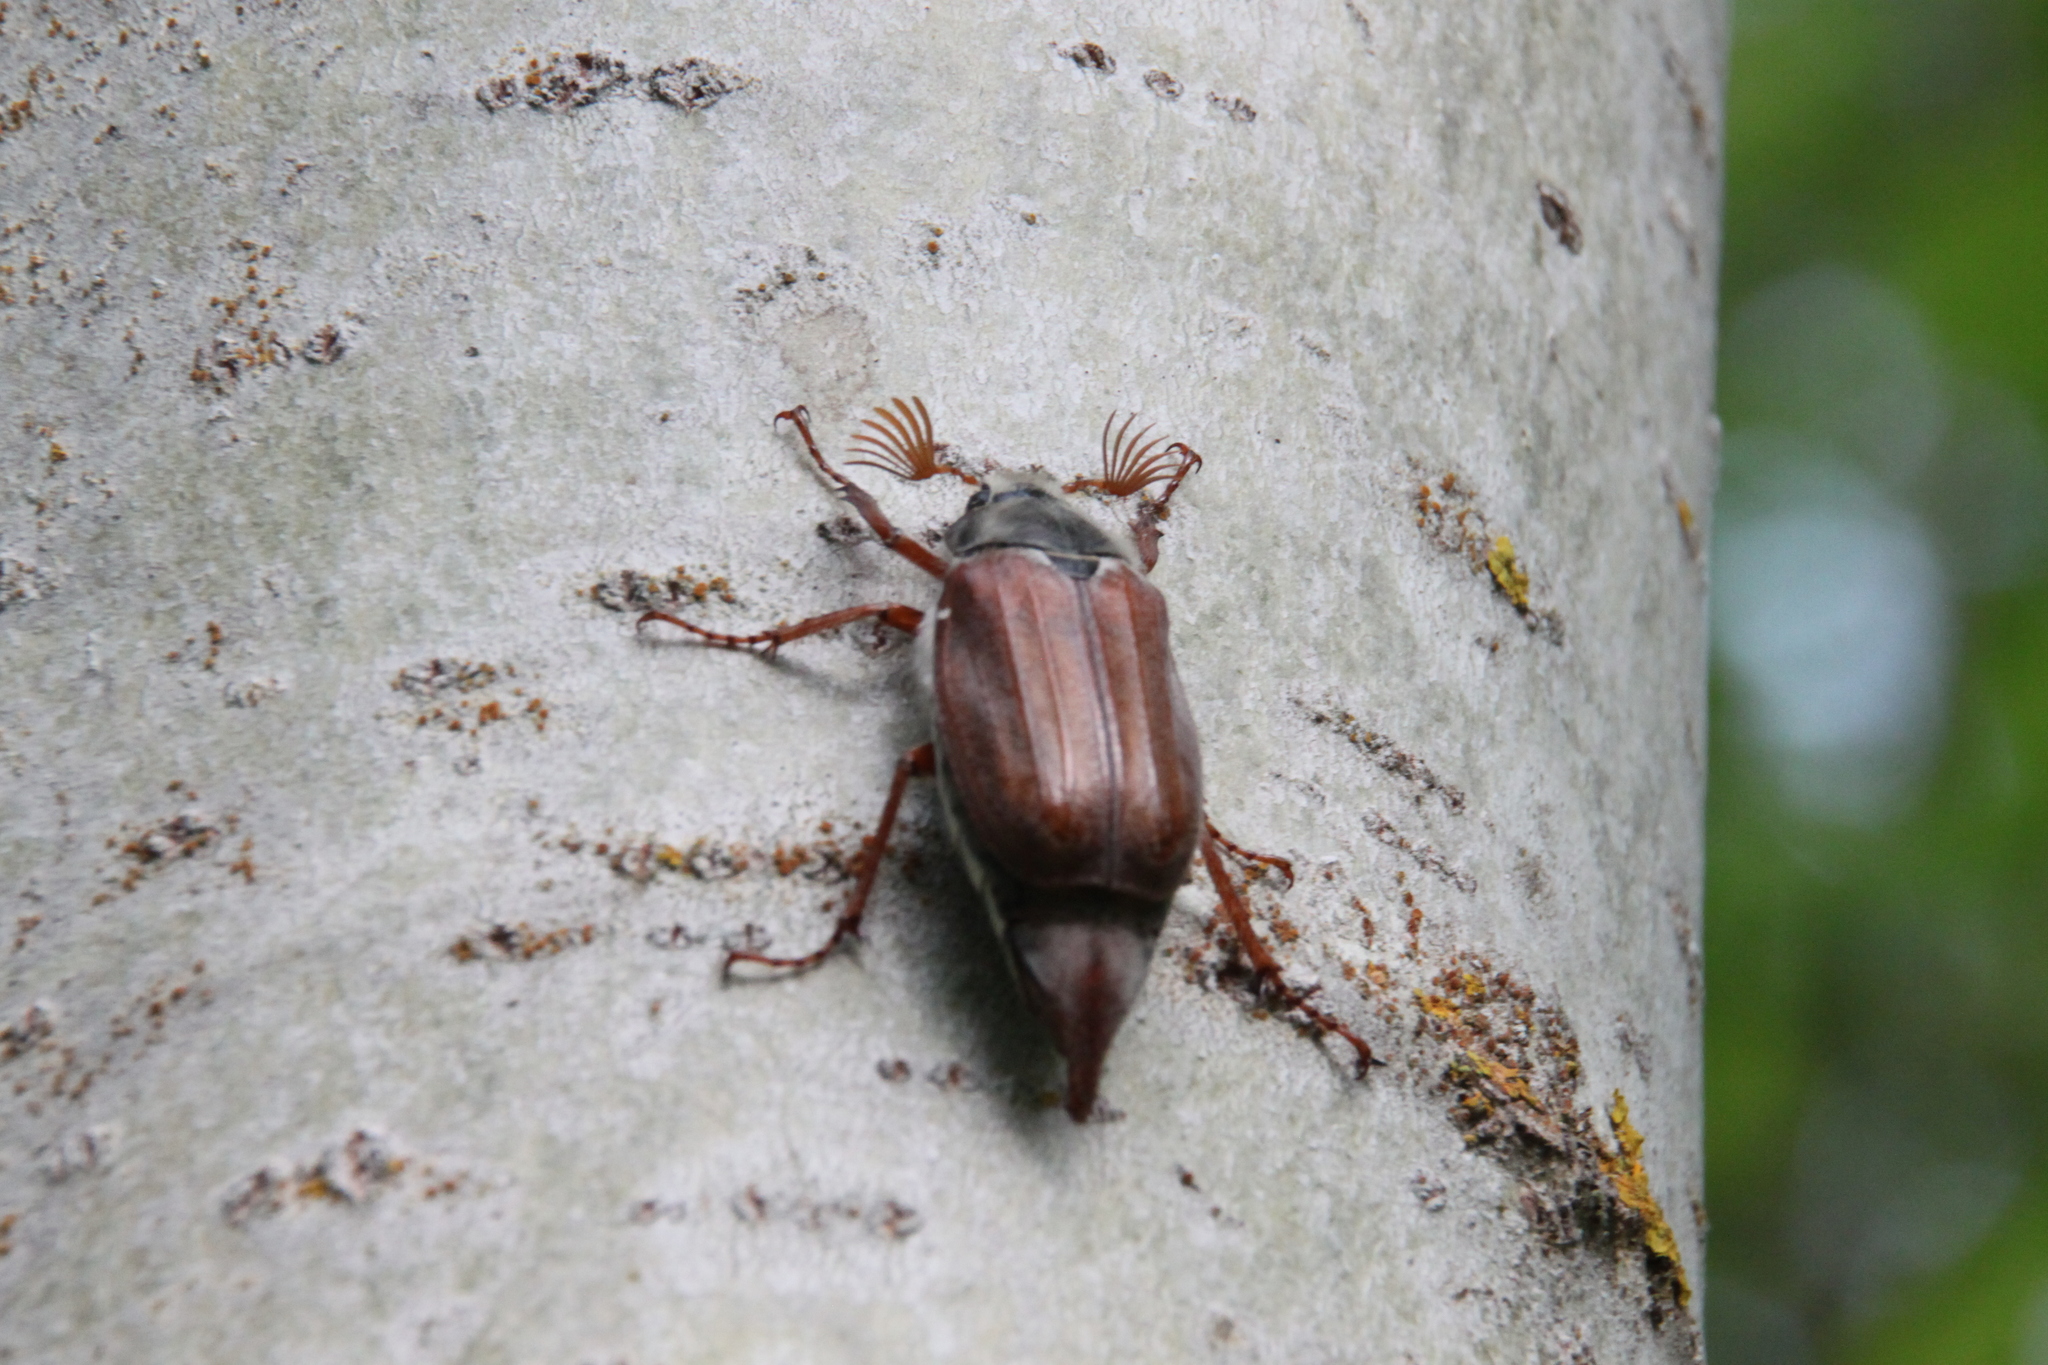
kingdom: Animalia
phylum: Arthropoda
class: Insecta
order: Coleoptera
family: Scarabaeidae
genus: Melolontha
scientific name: Melolontha melolontha
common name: Cockchafer maybeetle
